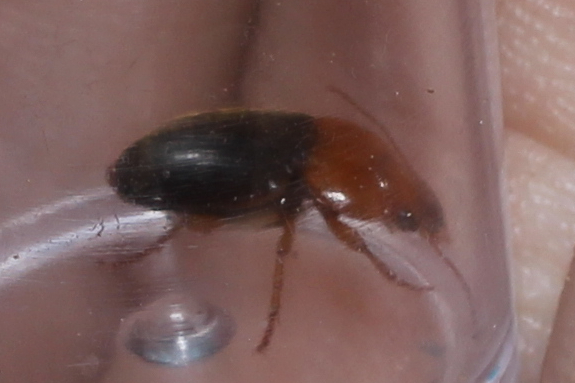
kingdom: Animalia
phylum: Arthropoda
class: Insecta
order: Coleoptera
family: Carabidae
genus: Amphasia
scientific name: Amphasia interstitialis
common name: Red-headed ground beetle
